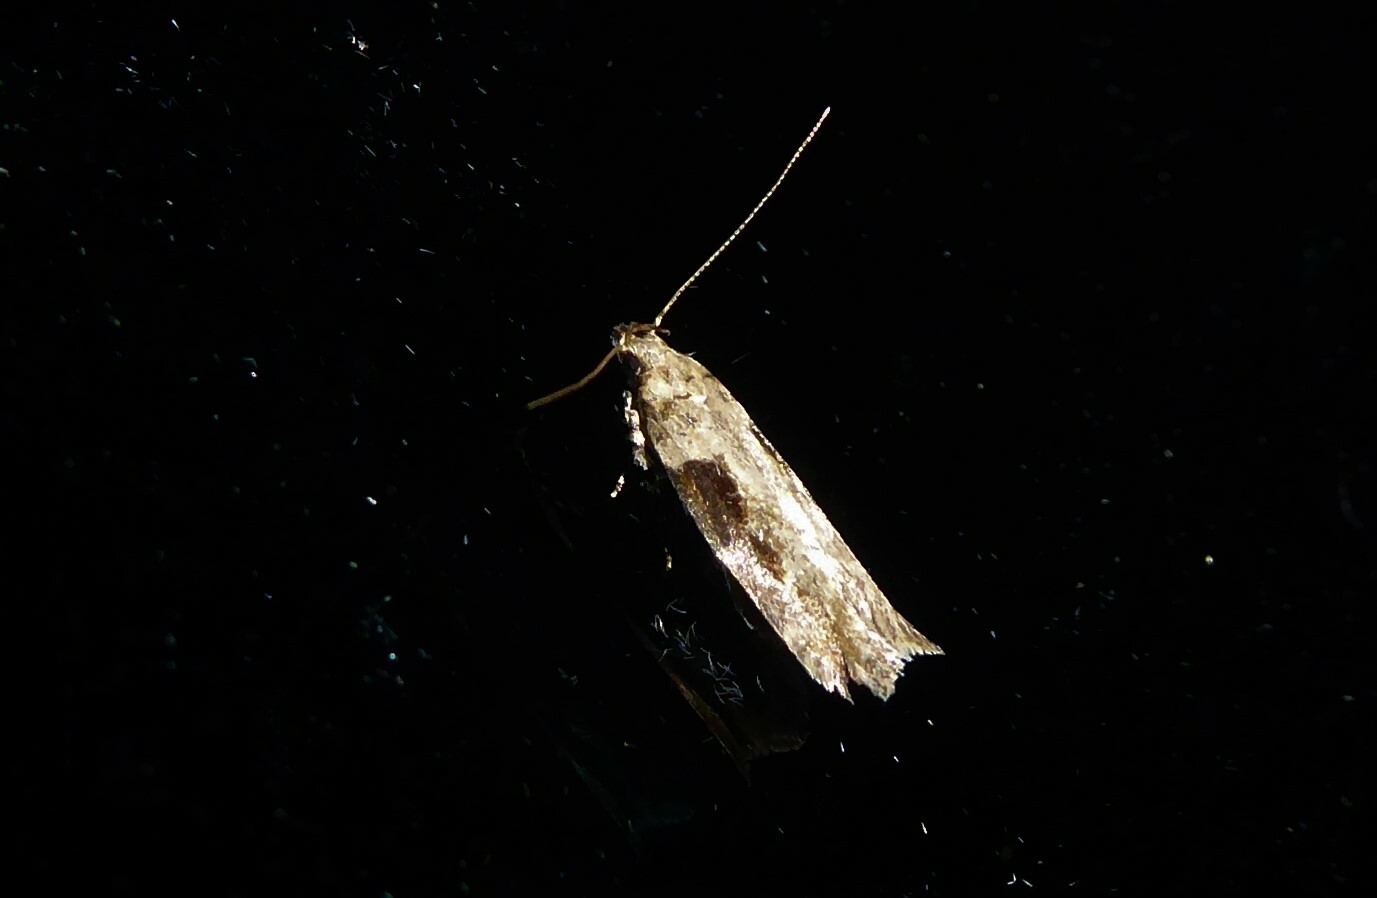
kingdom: Animalia
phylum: Arthropoda
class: Insecta
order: Lepidoptera
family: Gelechiidae
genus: Symmetrischema
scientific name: Symmetrischema tangolias
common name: Moth
